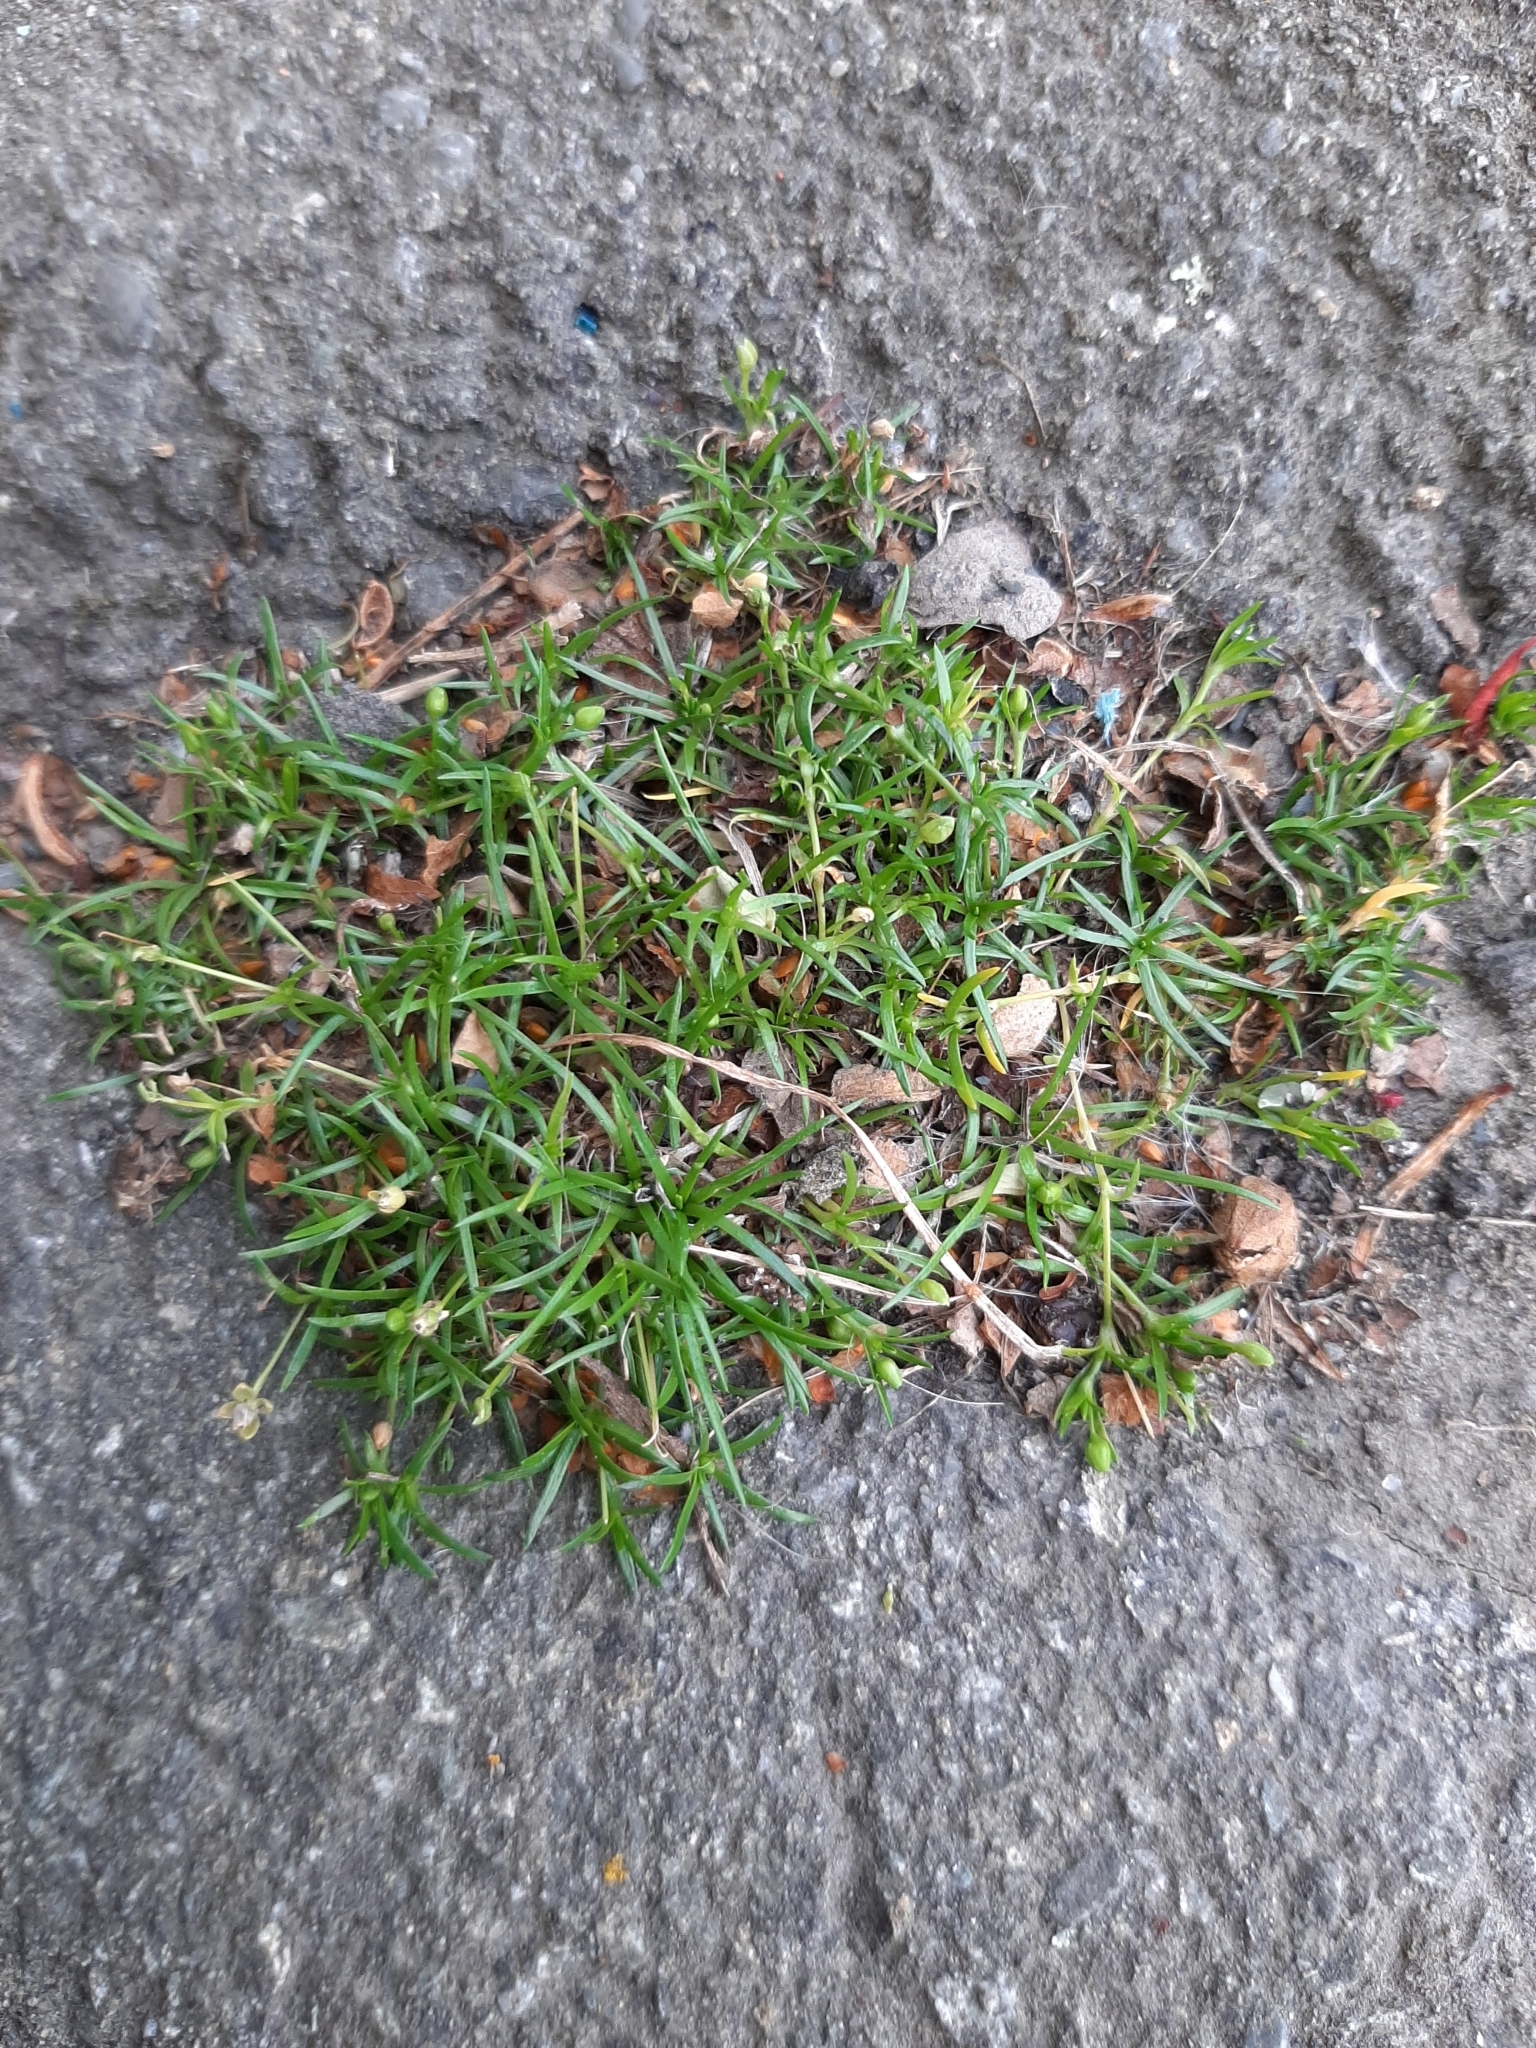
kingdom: Plantae
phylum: Tracheophyta
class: Magnoliopsida
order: Caryophyllales
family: Caryophyllaceae
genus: Sagina
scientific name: Sagina procumbens
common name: Procumbent pearlwort
